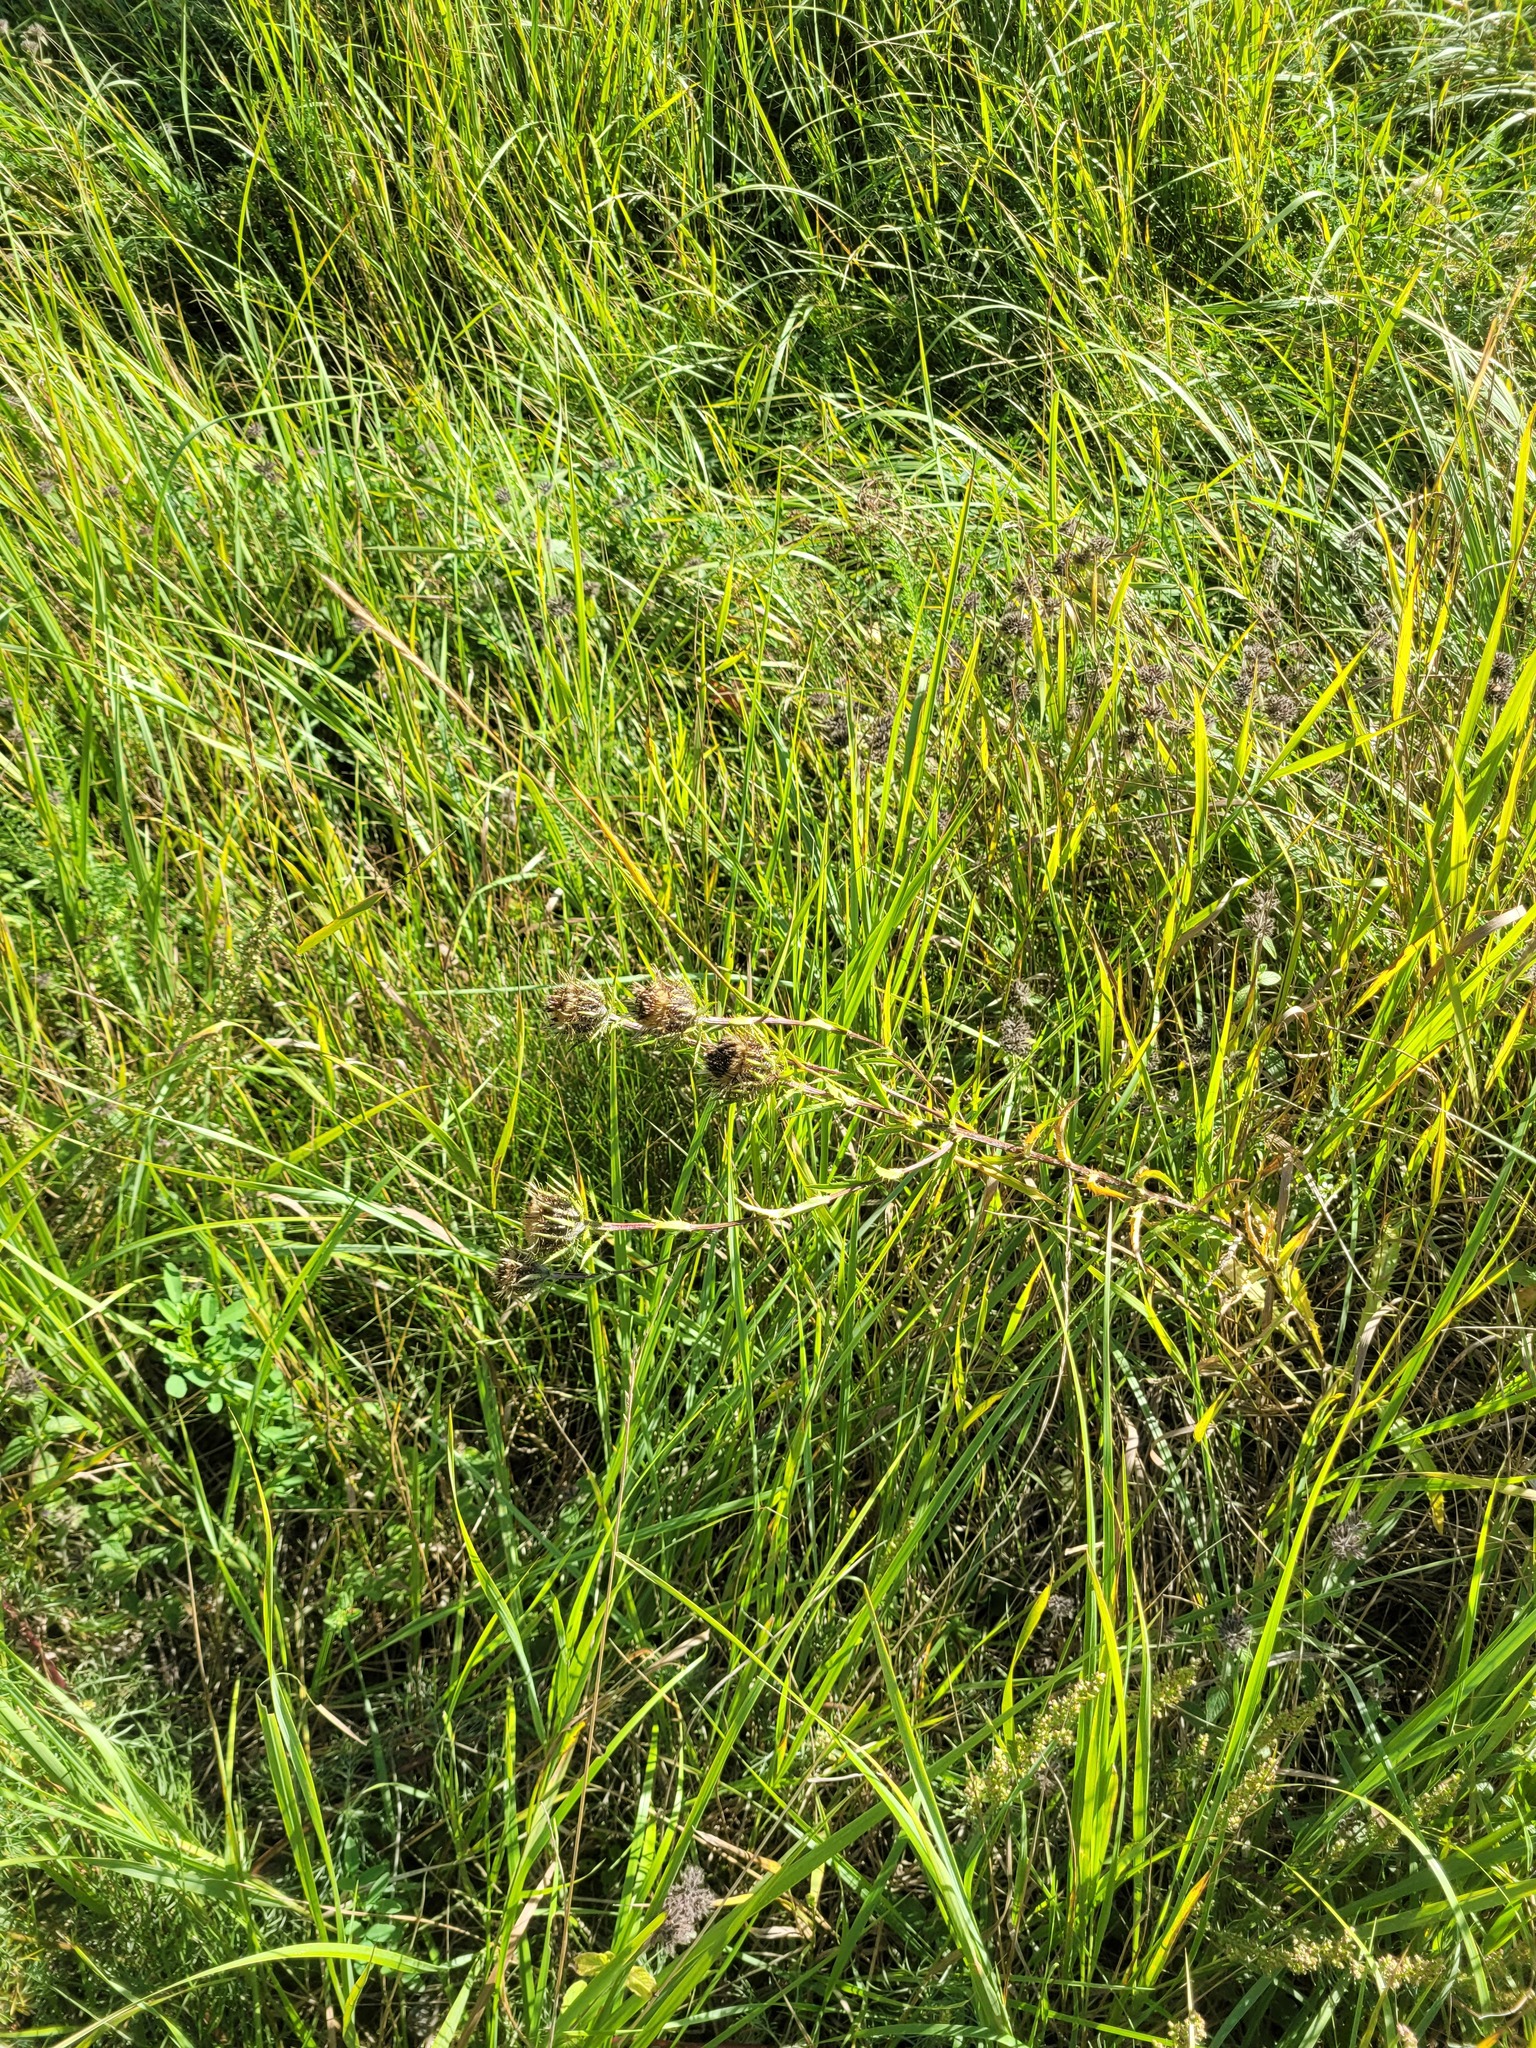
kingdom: Plantae
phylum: Tracheophyta
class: Magnoliopsida
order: Asterales
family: Asteraceae
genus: Carlina
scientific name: Carlina biebersteinii
